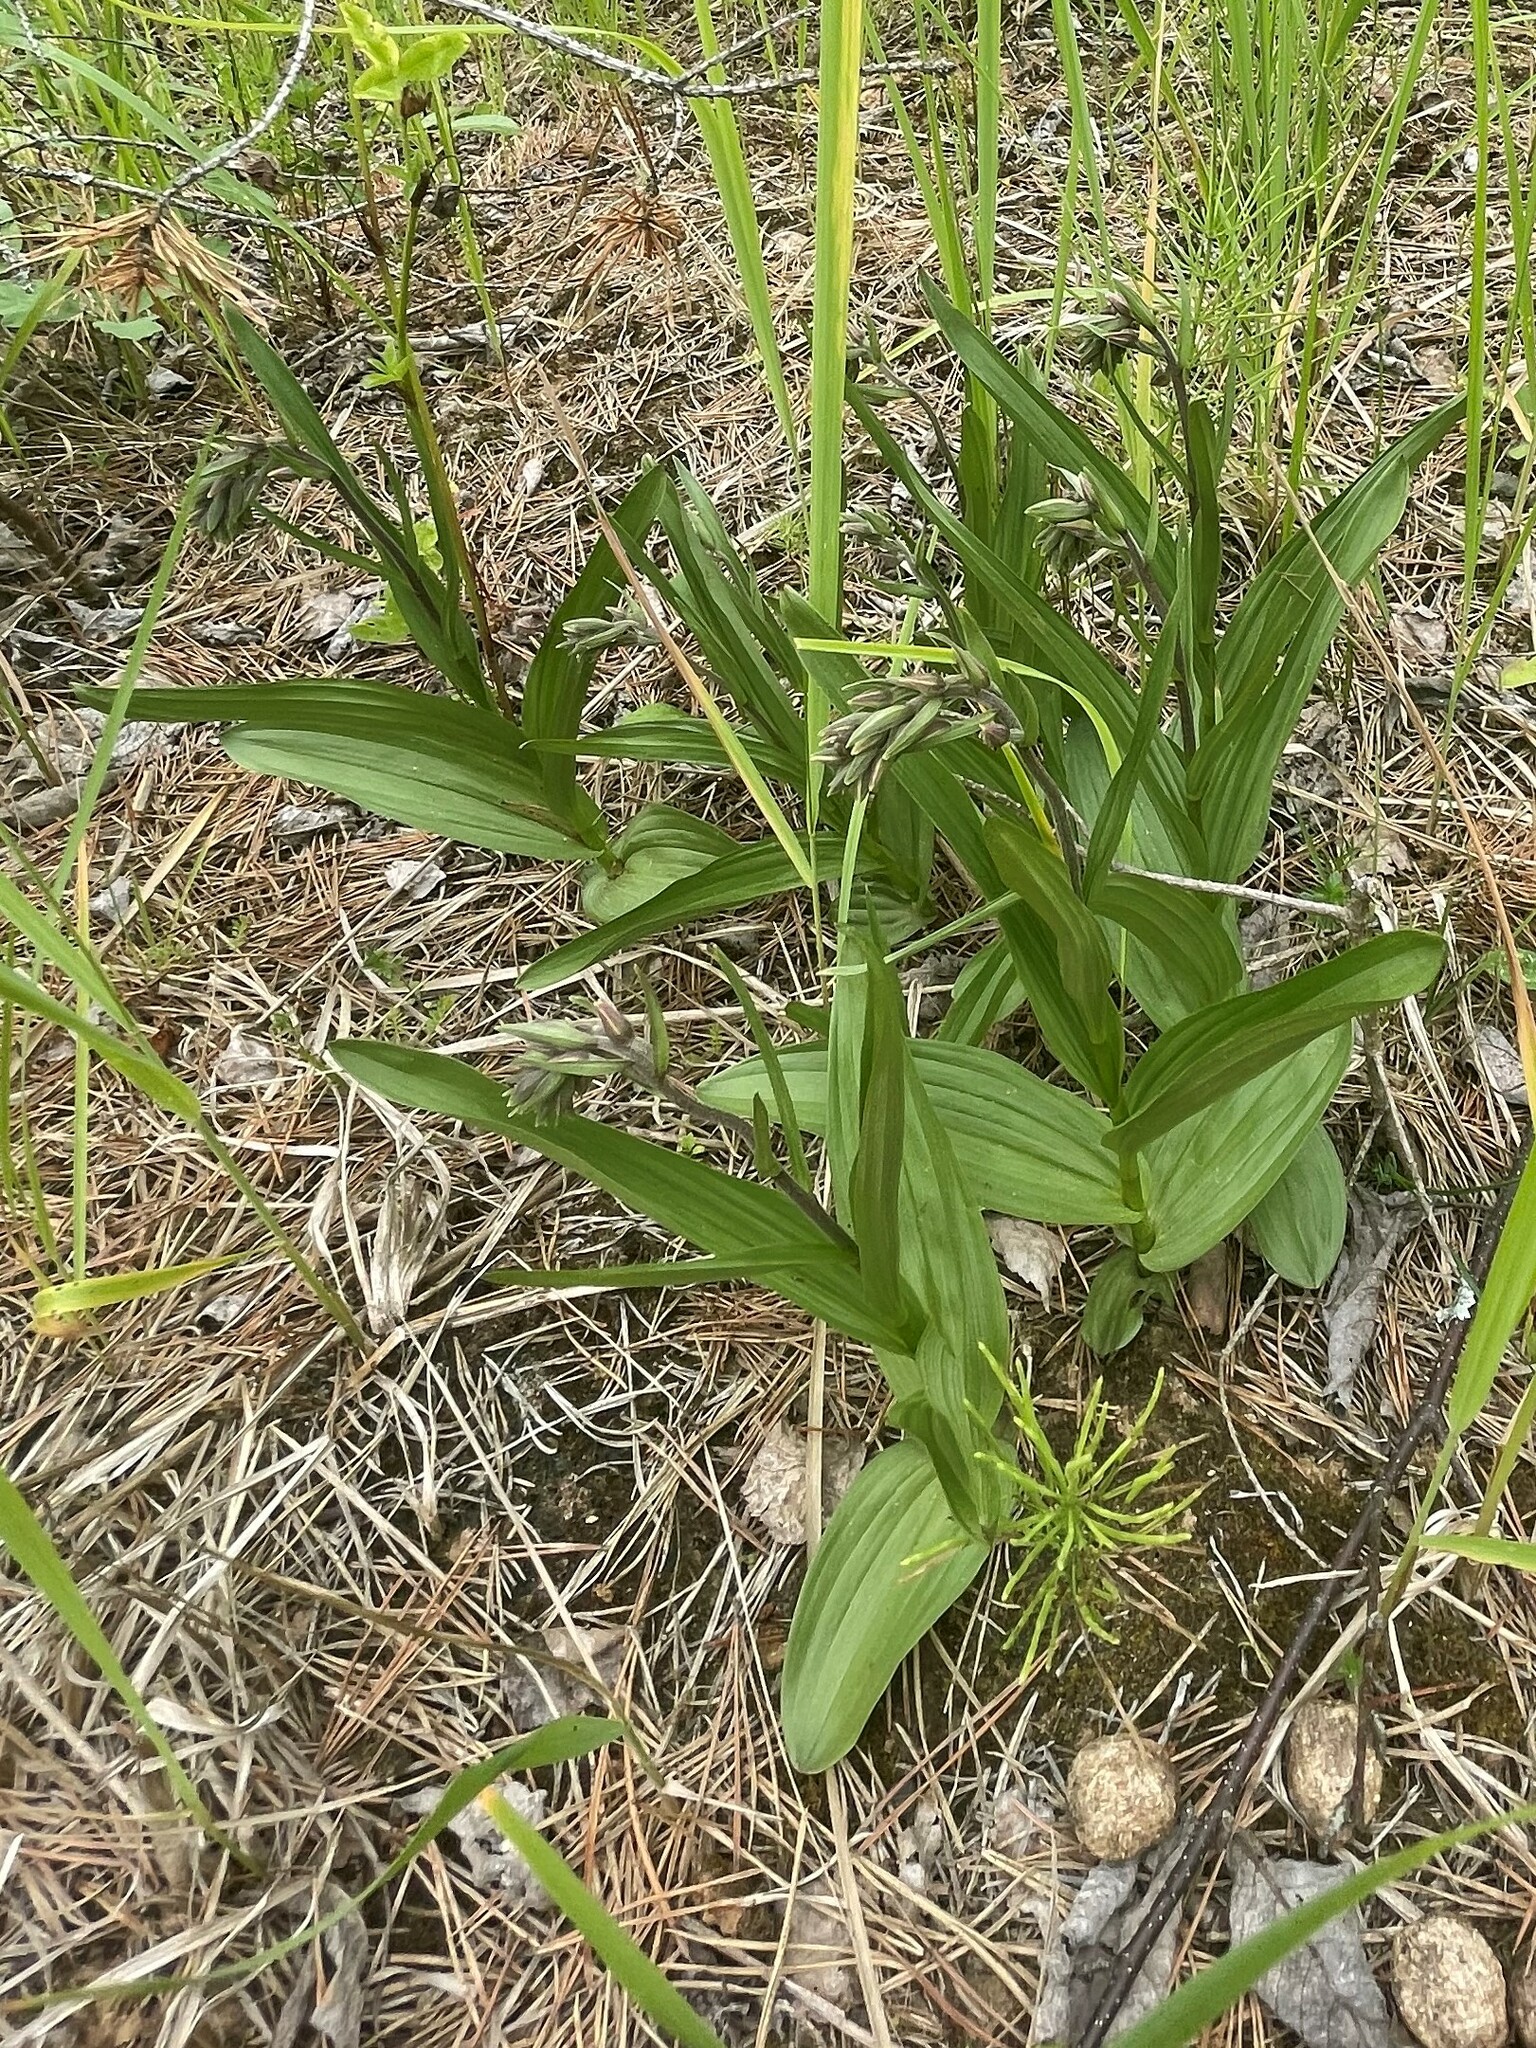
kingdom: Plantae
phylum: Tracheophyta
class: Liliopsida
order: Asparagales
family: Orchidaceae
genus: Epipactis
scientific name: Epipactis palustris
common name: Marsh helleborine
